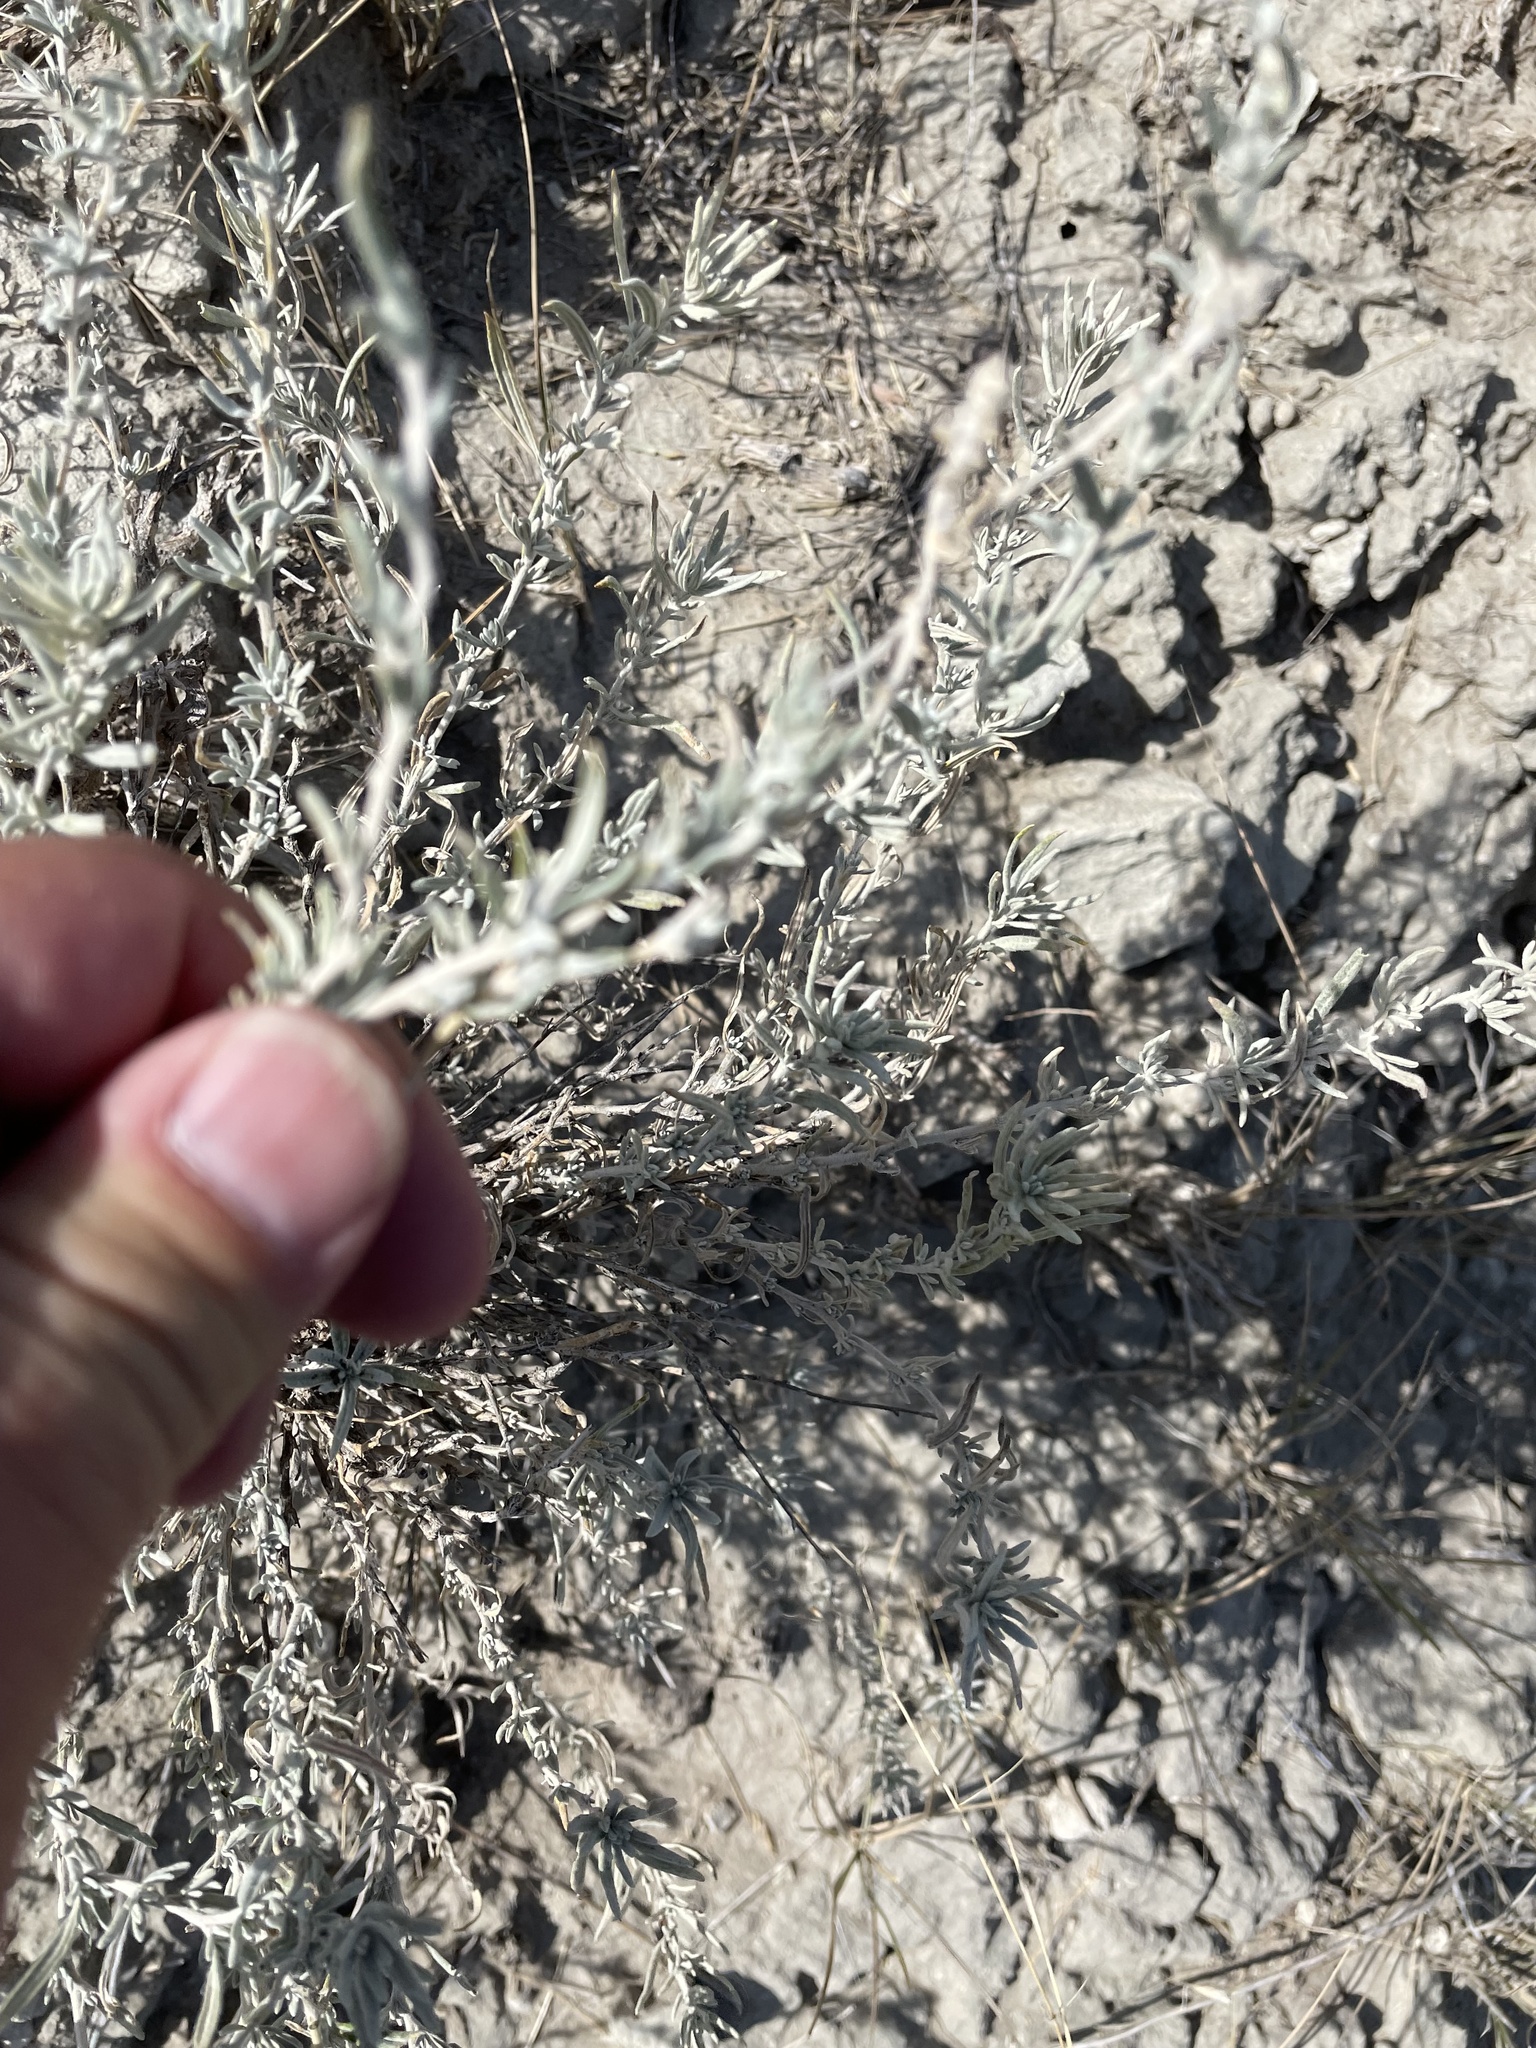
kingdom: Plantae
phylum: Tracheophyta
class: Magnoliopsida
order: Caryophyllales
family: Amaranthaceae
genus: Krascheninnikovia
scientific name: Krascheninnikovia lanata
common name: Winterfat
